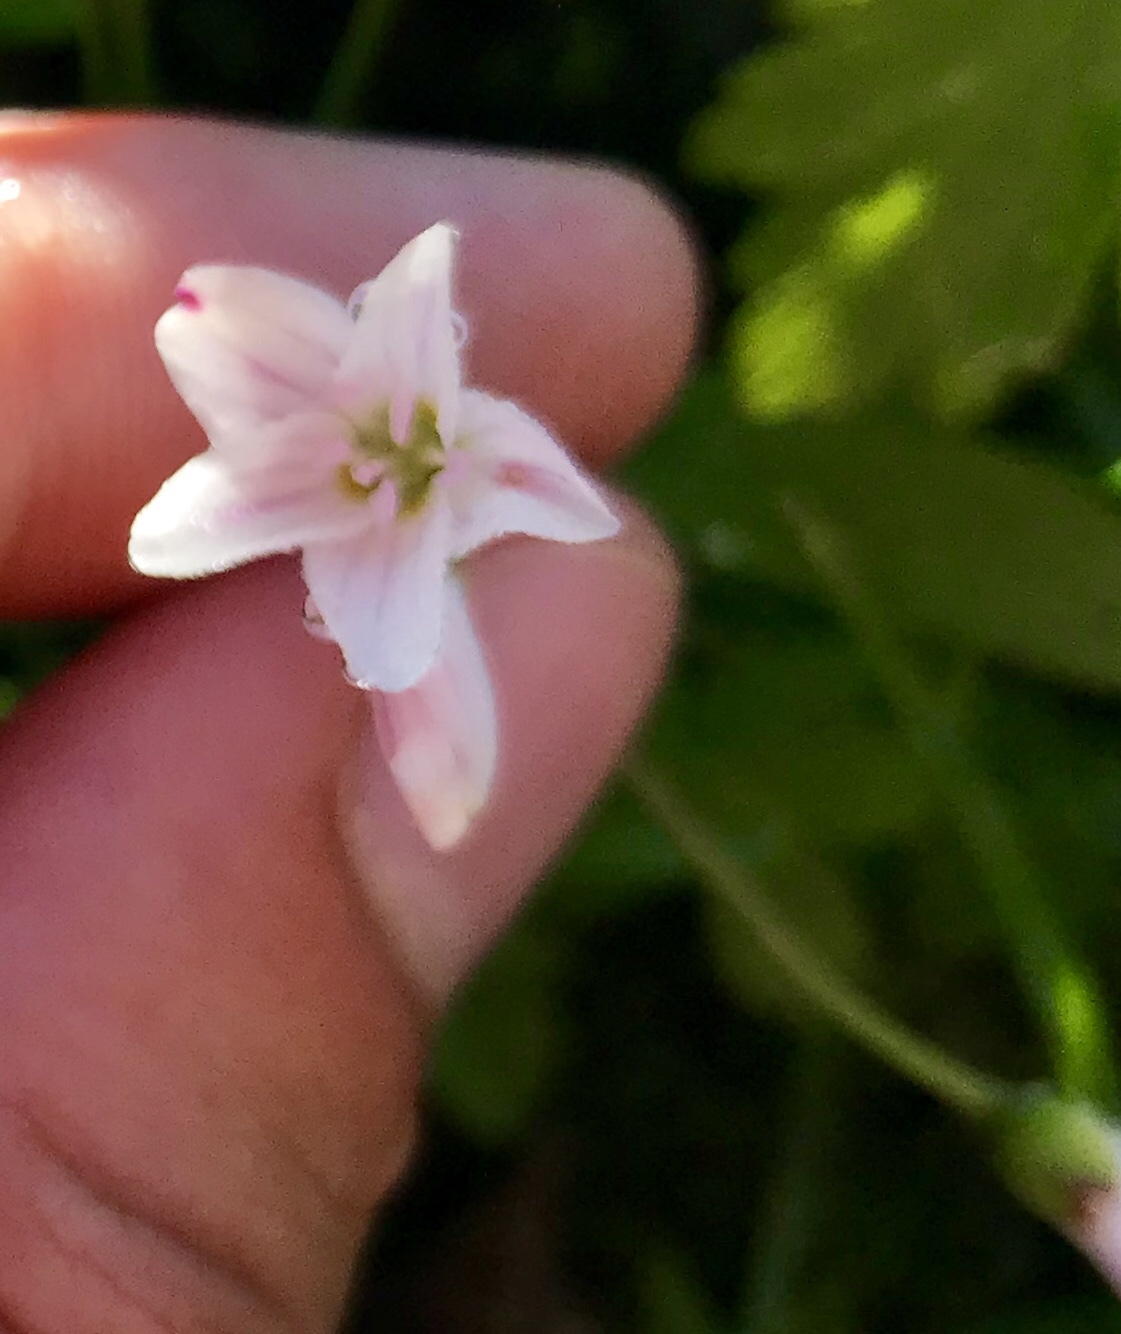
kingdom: Plantae
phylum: Tracheophyta
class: Magnoliopsida
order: Caryophyllales
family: Montiaceae
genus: Claytonia
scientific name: Claytonia lanceolata
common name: Western spring-beauty
